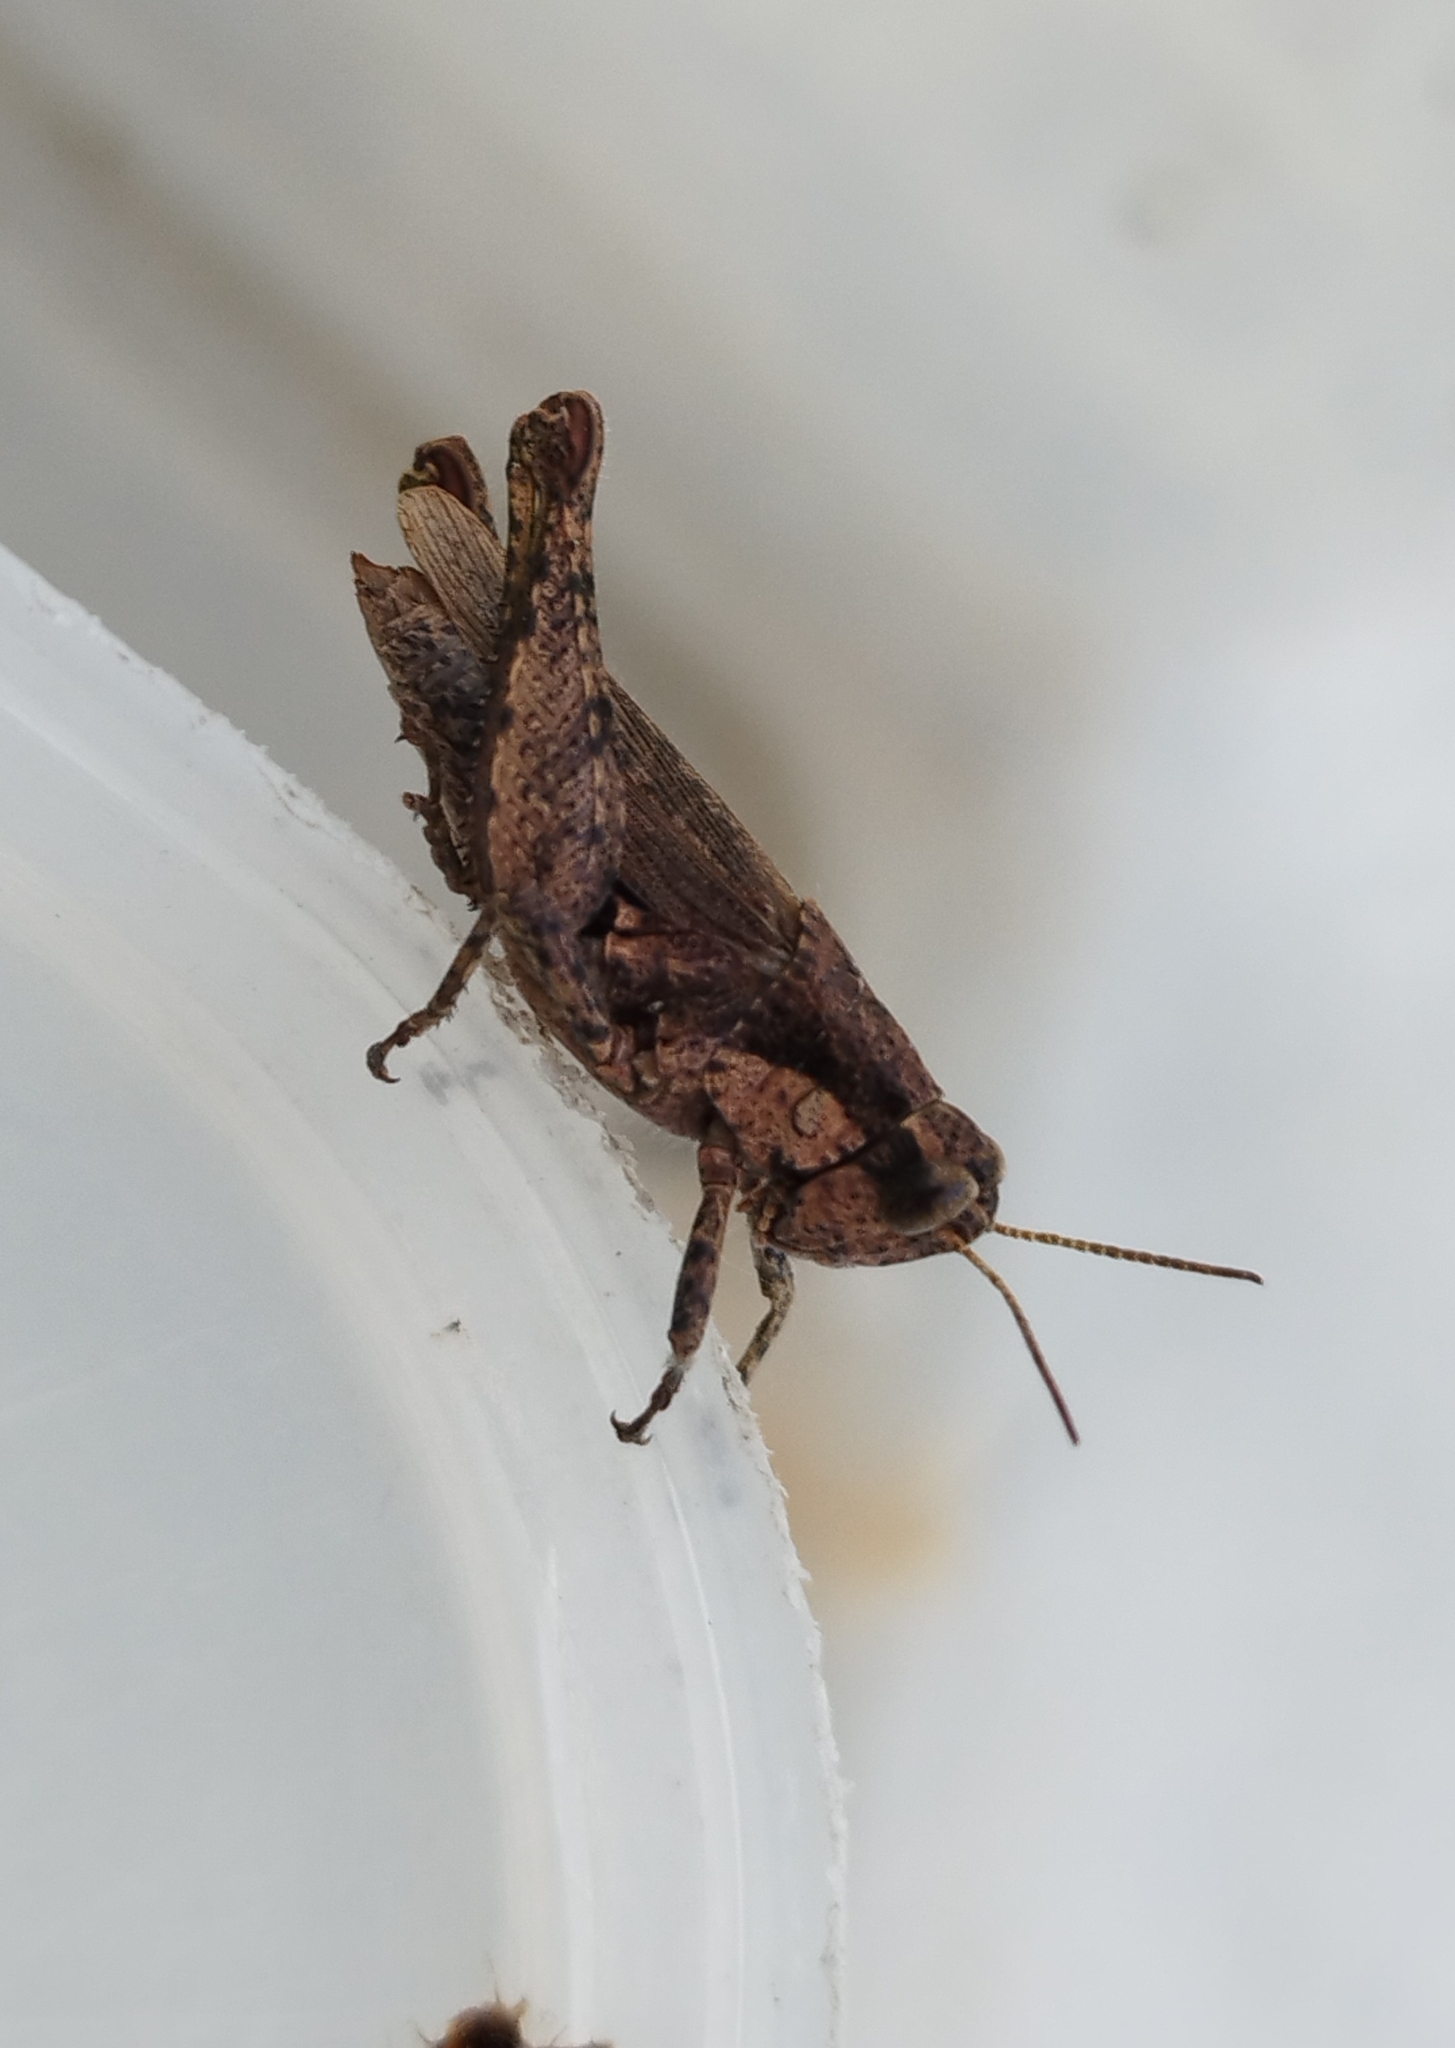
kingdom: Animalia
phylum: Arthropoda
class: Insecta
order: Orthoptera
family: Acrididae
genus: Ronderosia
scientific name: Ronderosia bergii
